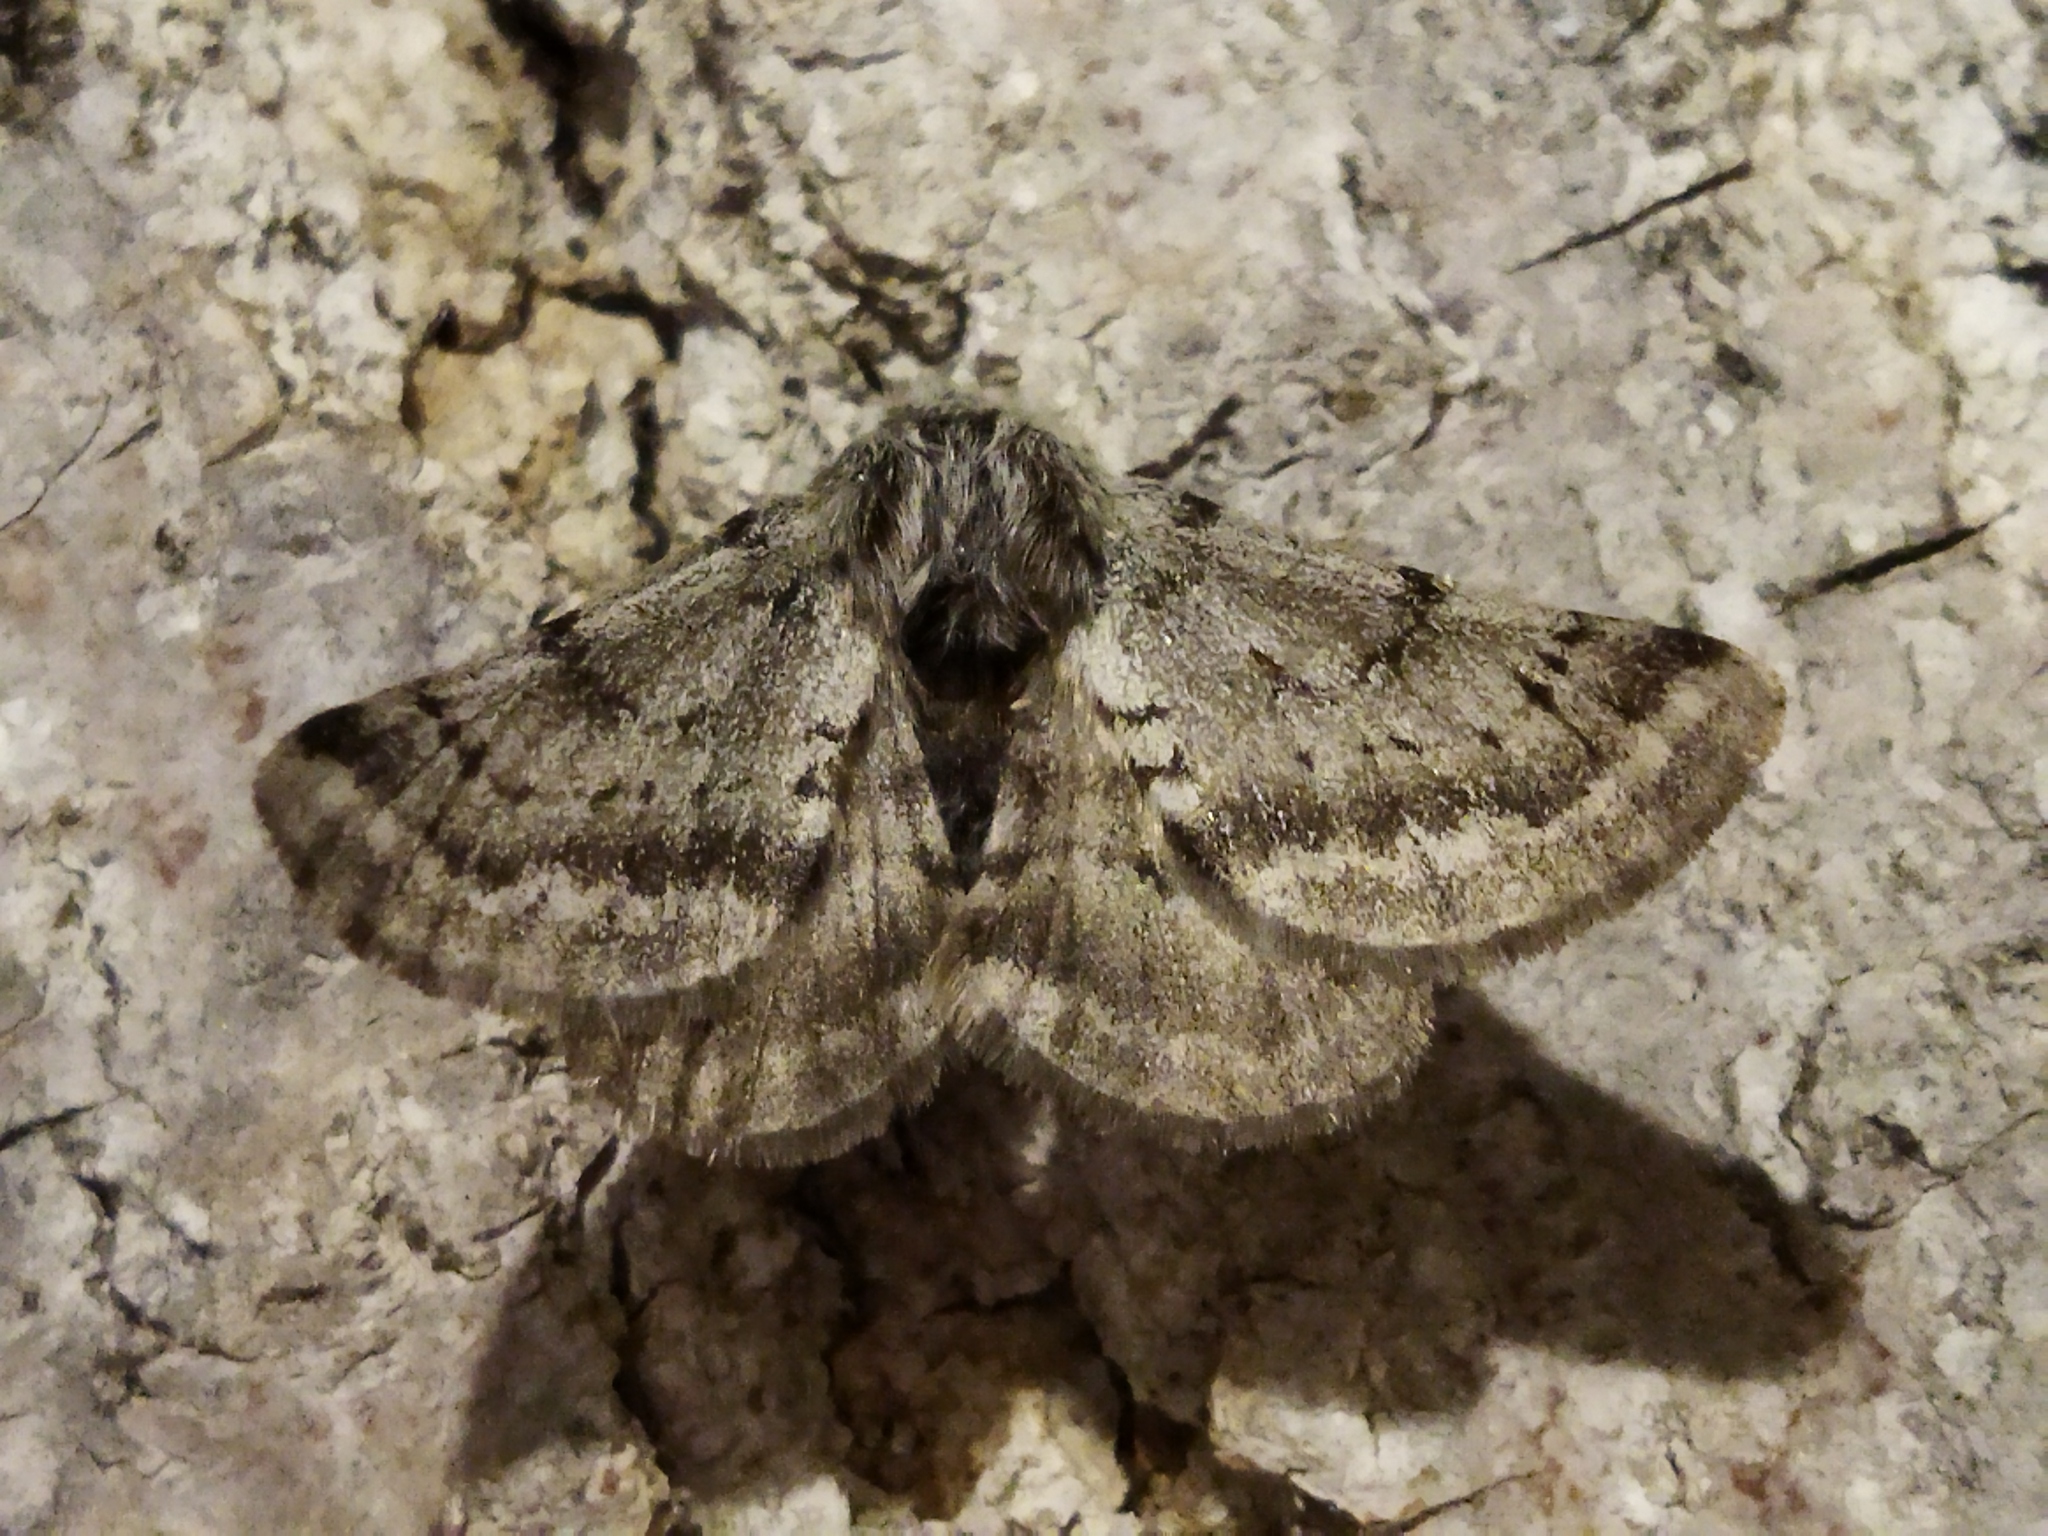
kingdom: Animalia
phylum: Arthropoda
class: Insecta
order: Lepidoptera
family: Geometridae
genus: Lycia
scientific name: Lycia graecarius
